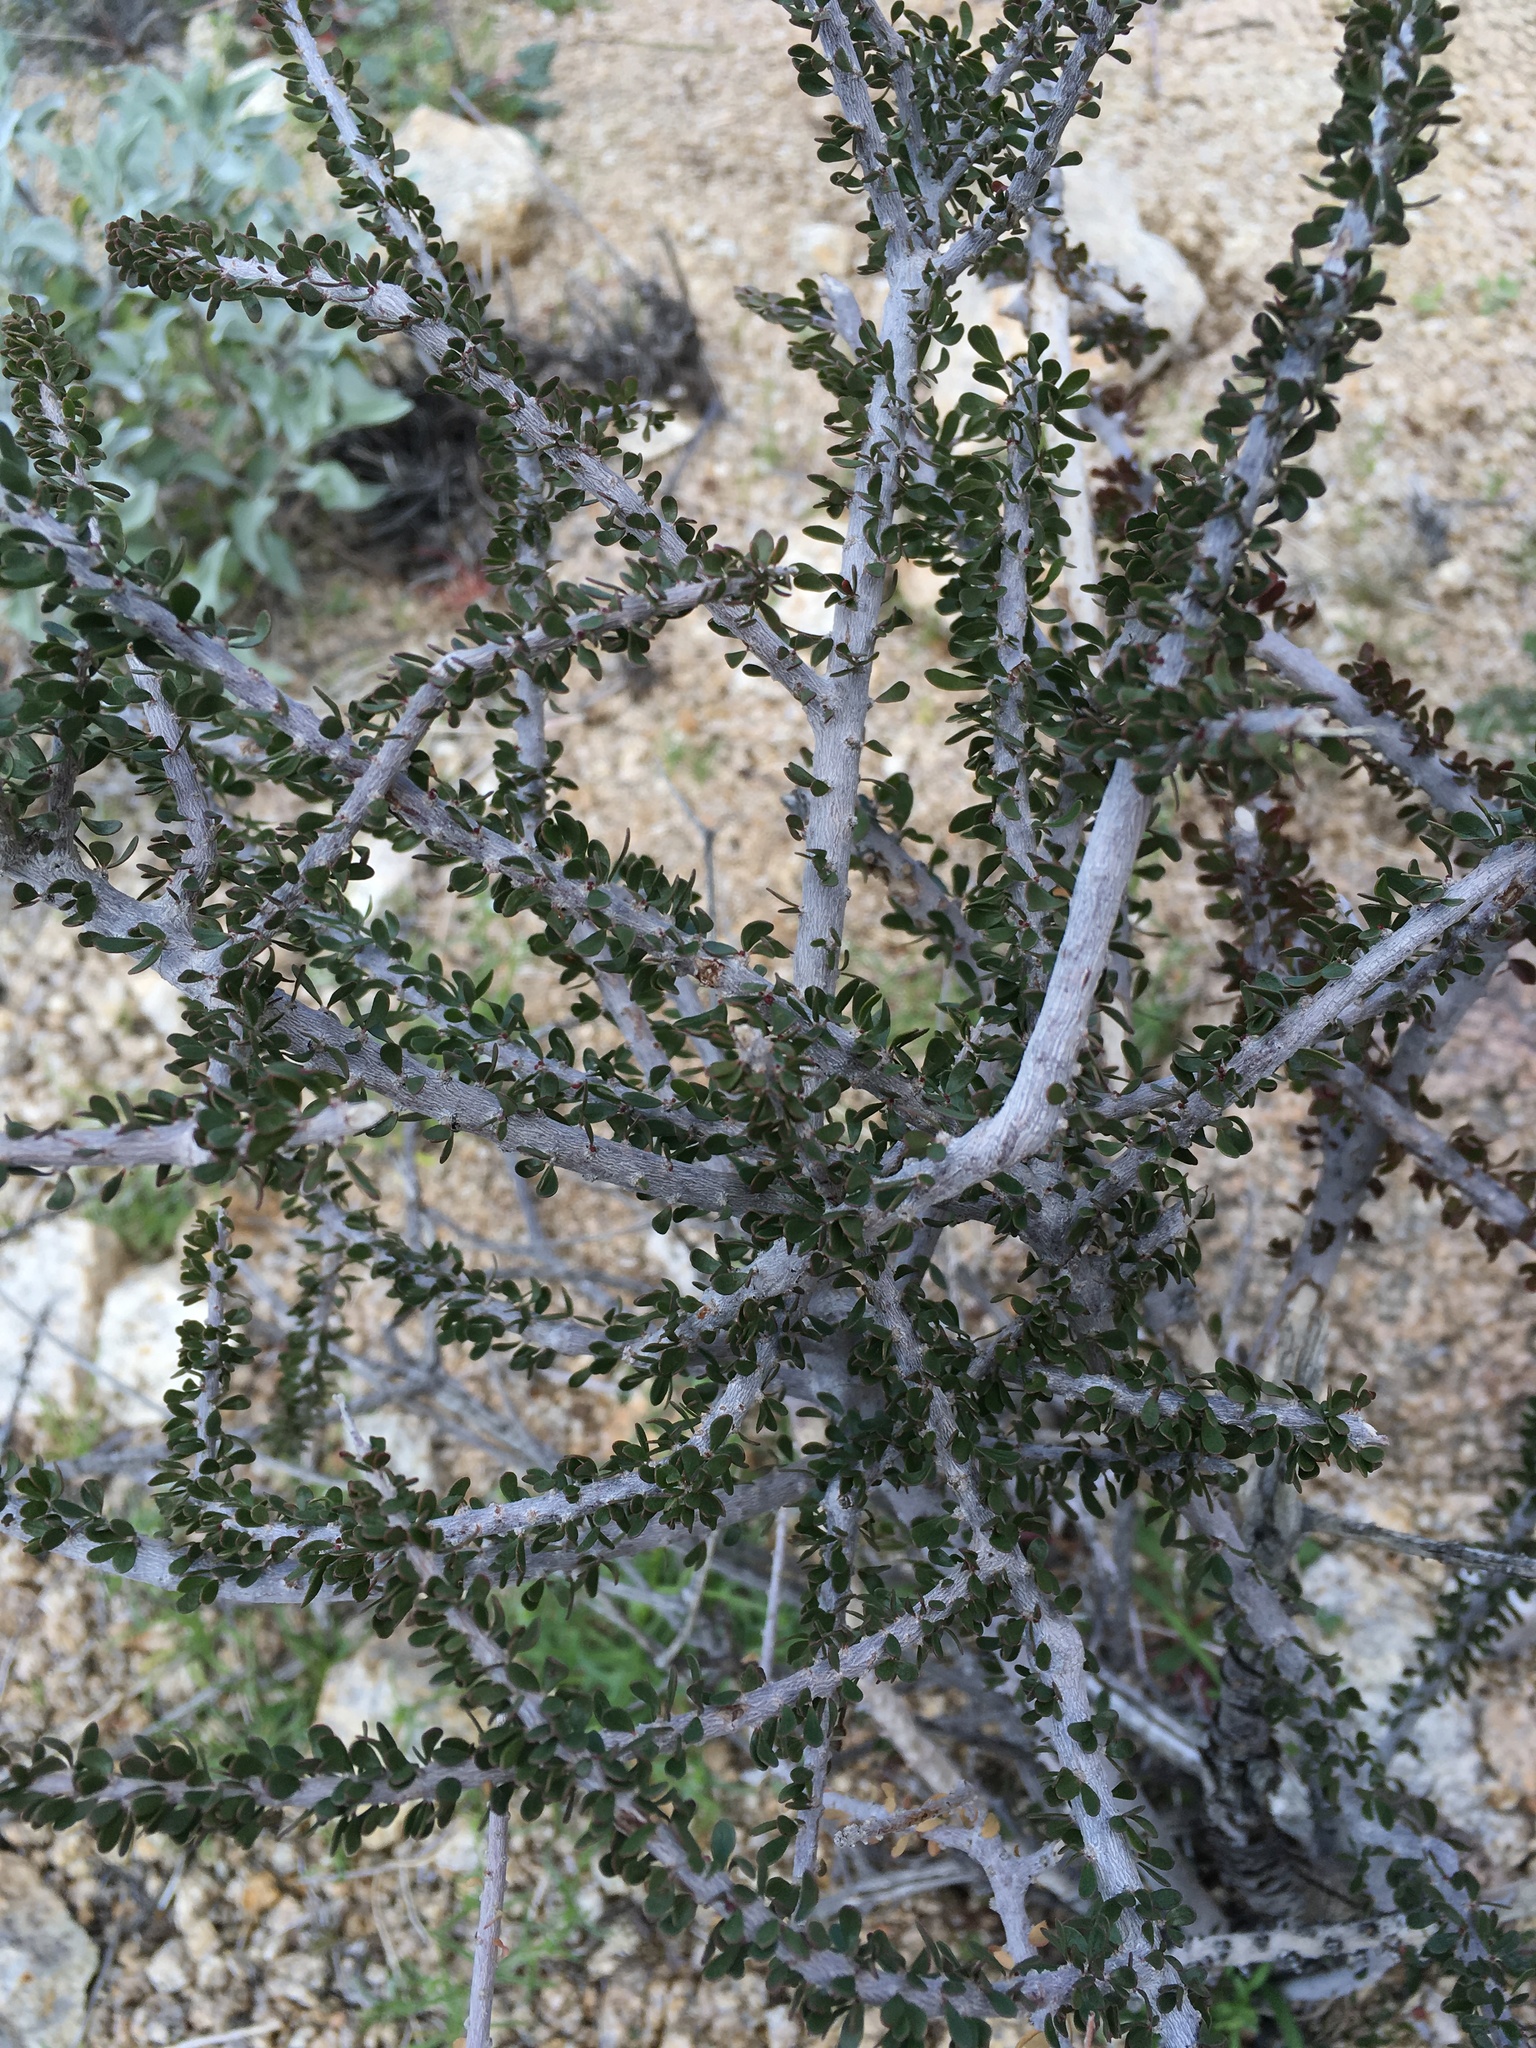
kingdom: Plantae
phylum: Tracheophyta
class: Magnoliopsida
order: Malpighiales
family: Picrodendraceae
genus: Tetracoccus
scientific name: Tetracoccus hallii
